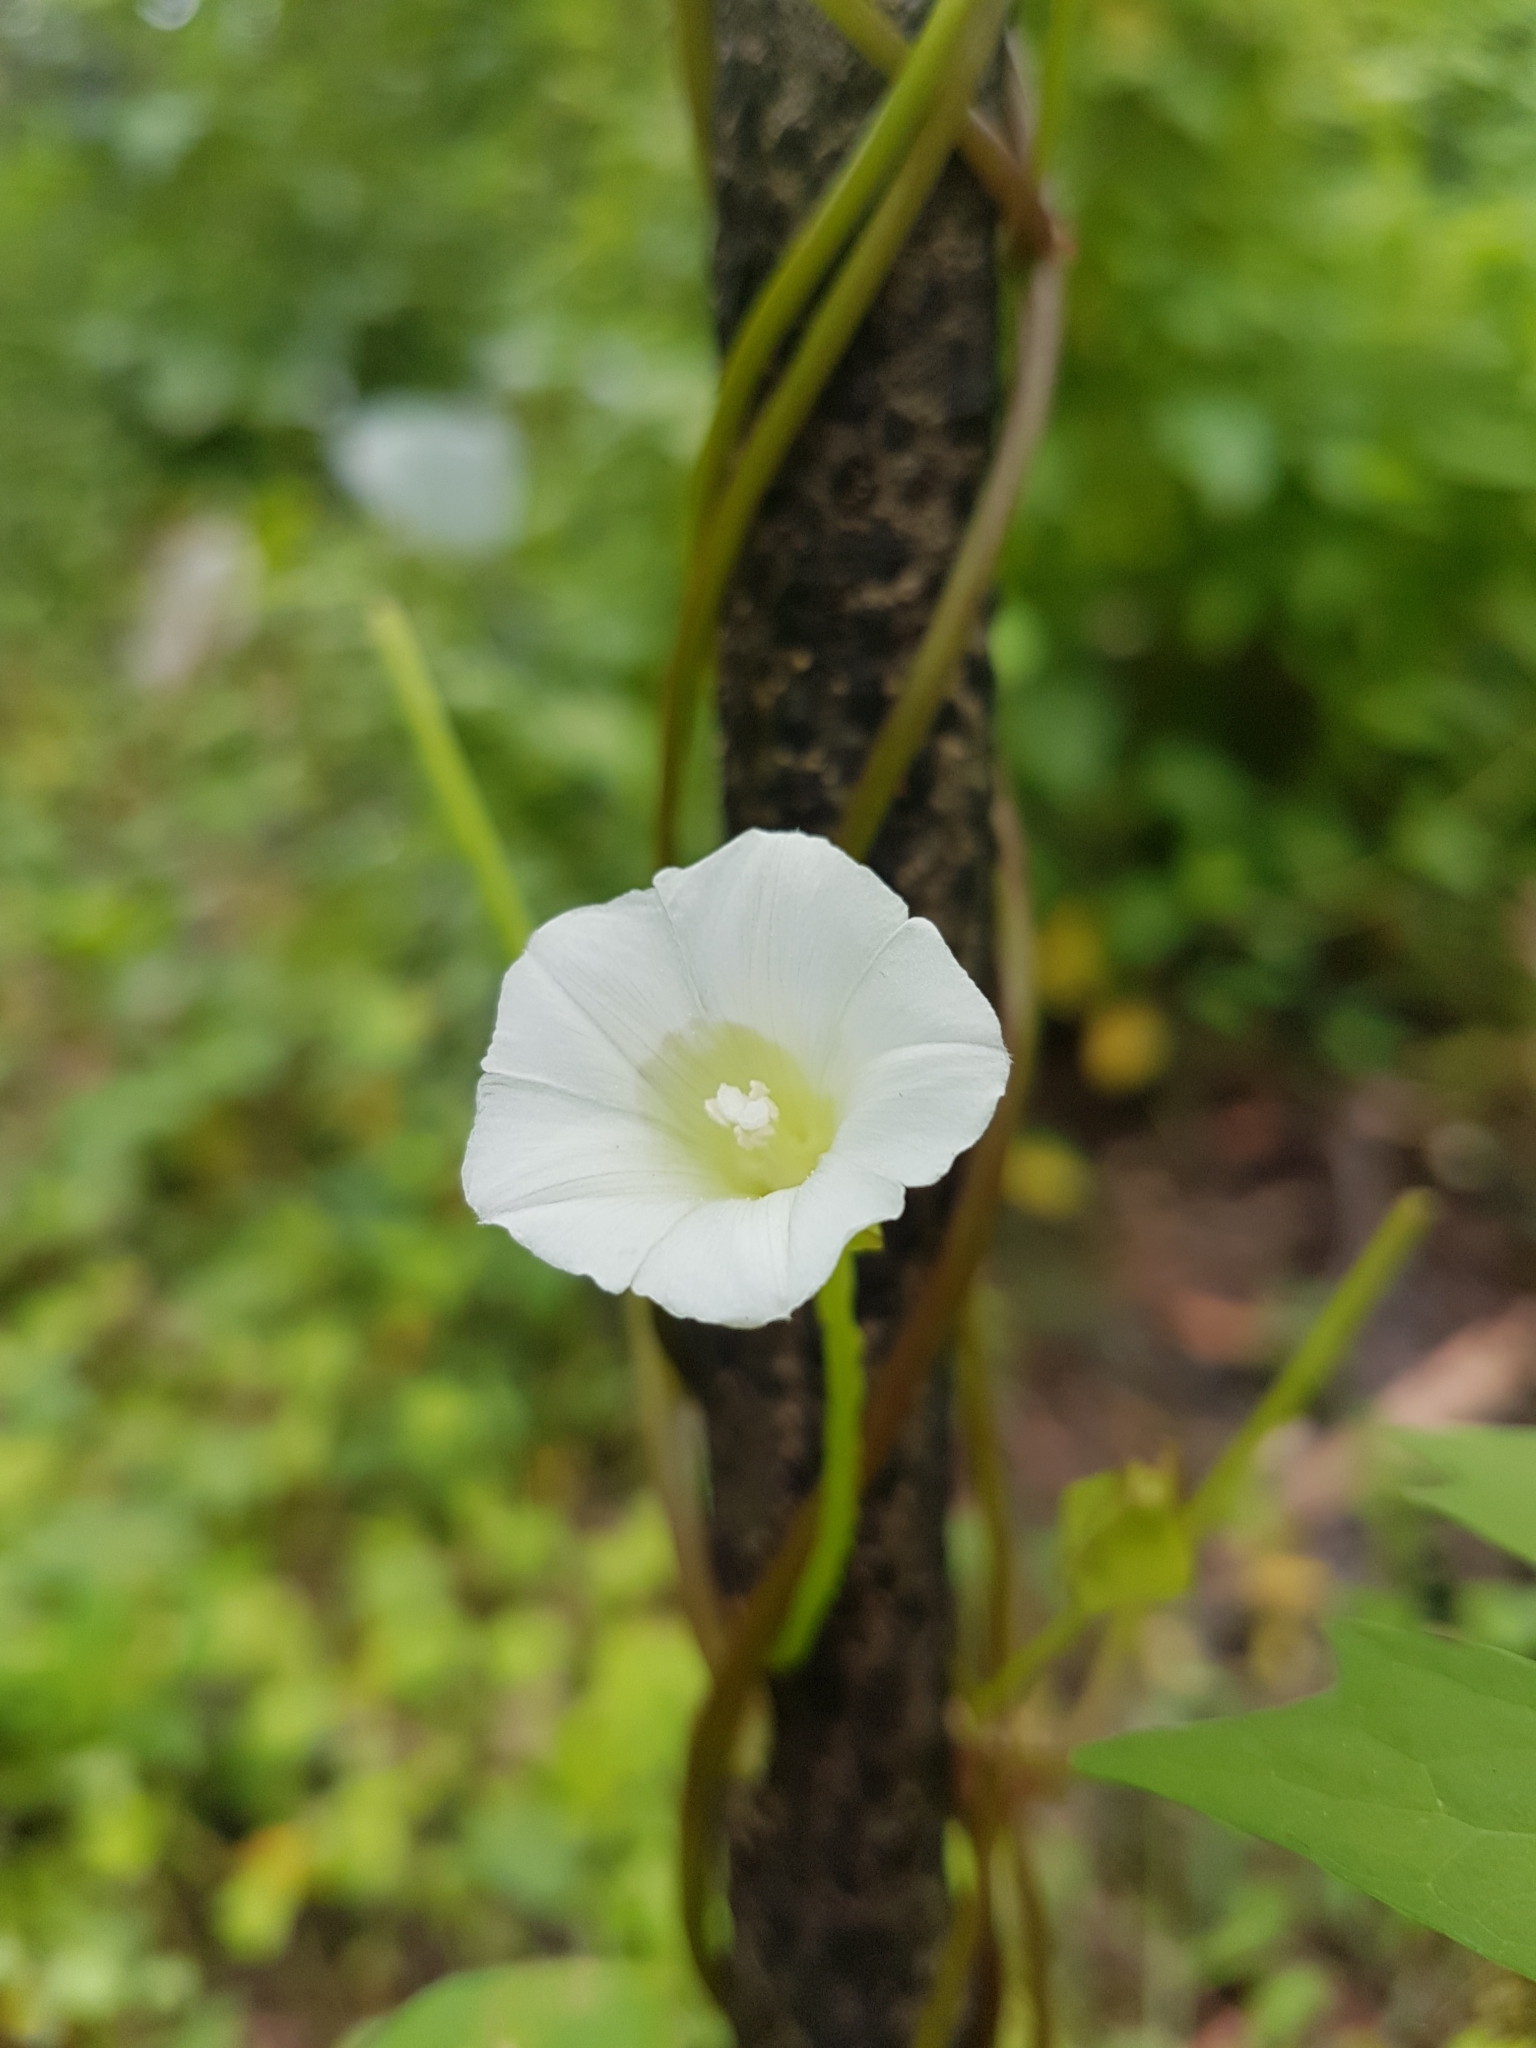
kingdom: Plantae
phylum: Tracheophyta
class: Magnoliopsida
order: Solanales
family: Convolvulaceae
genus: Calystegia
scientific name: Calystegia marginata
